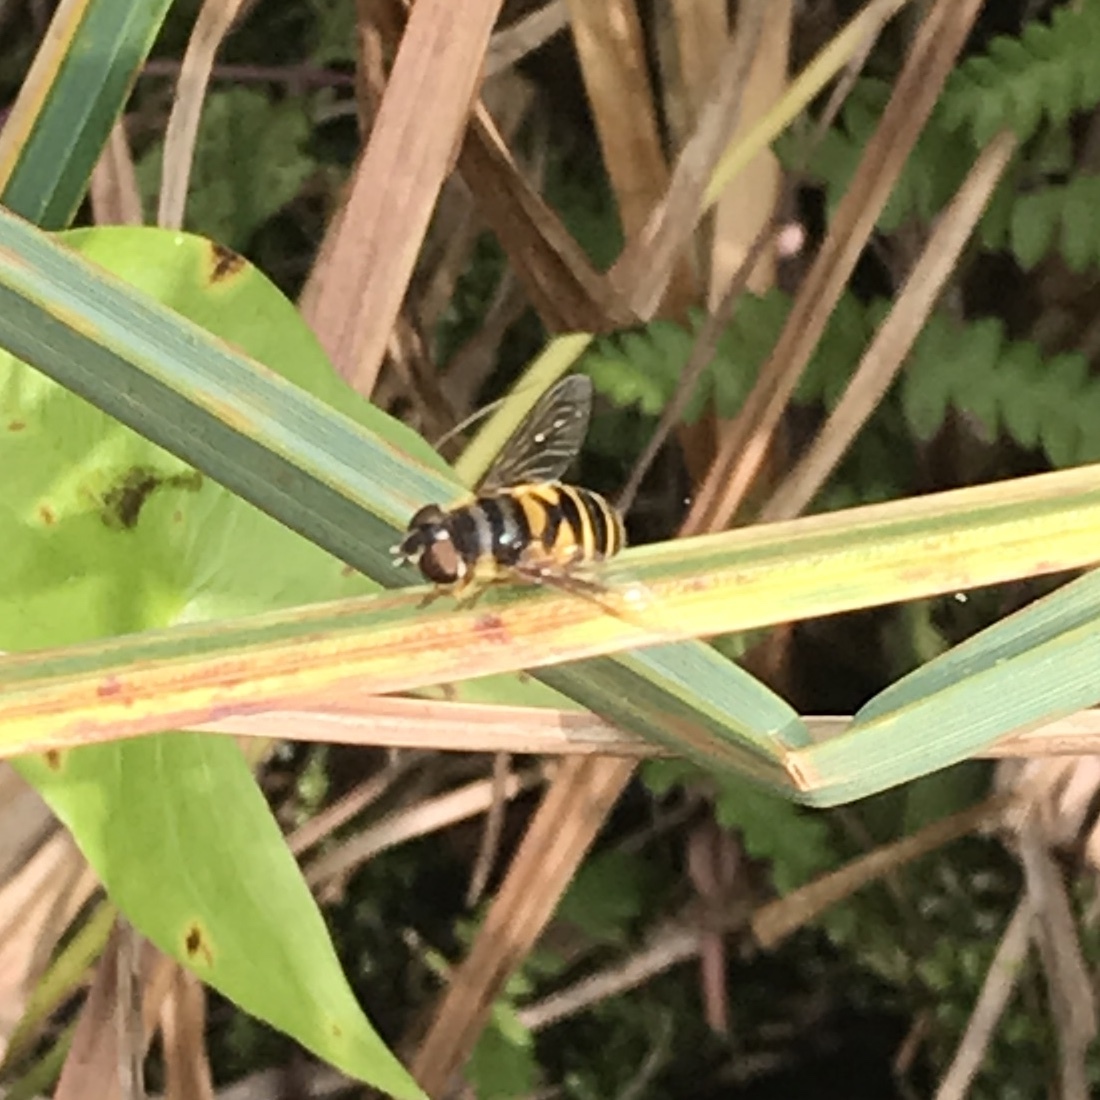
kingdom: Animalia
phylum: Arthropoda
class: Insecta
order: Diptera
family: Syrphidae
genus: Eristalis
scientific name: Eristalis transversa
